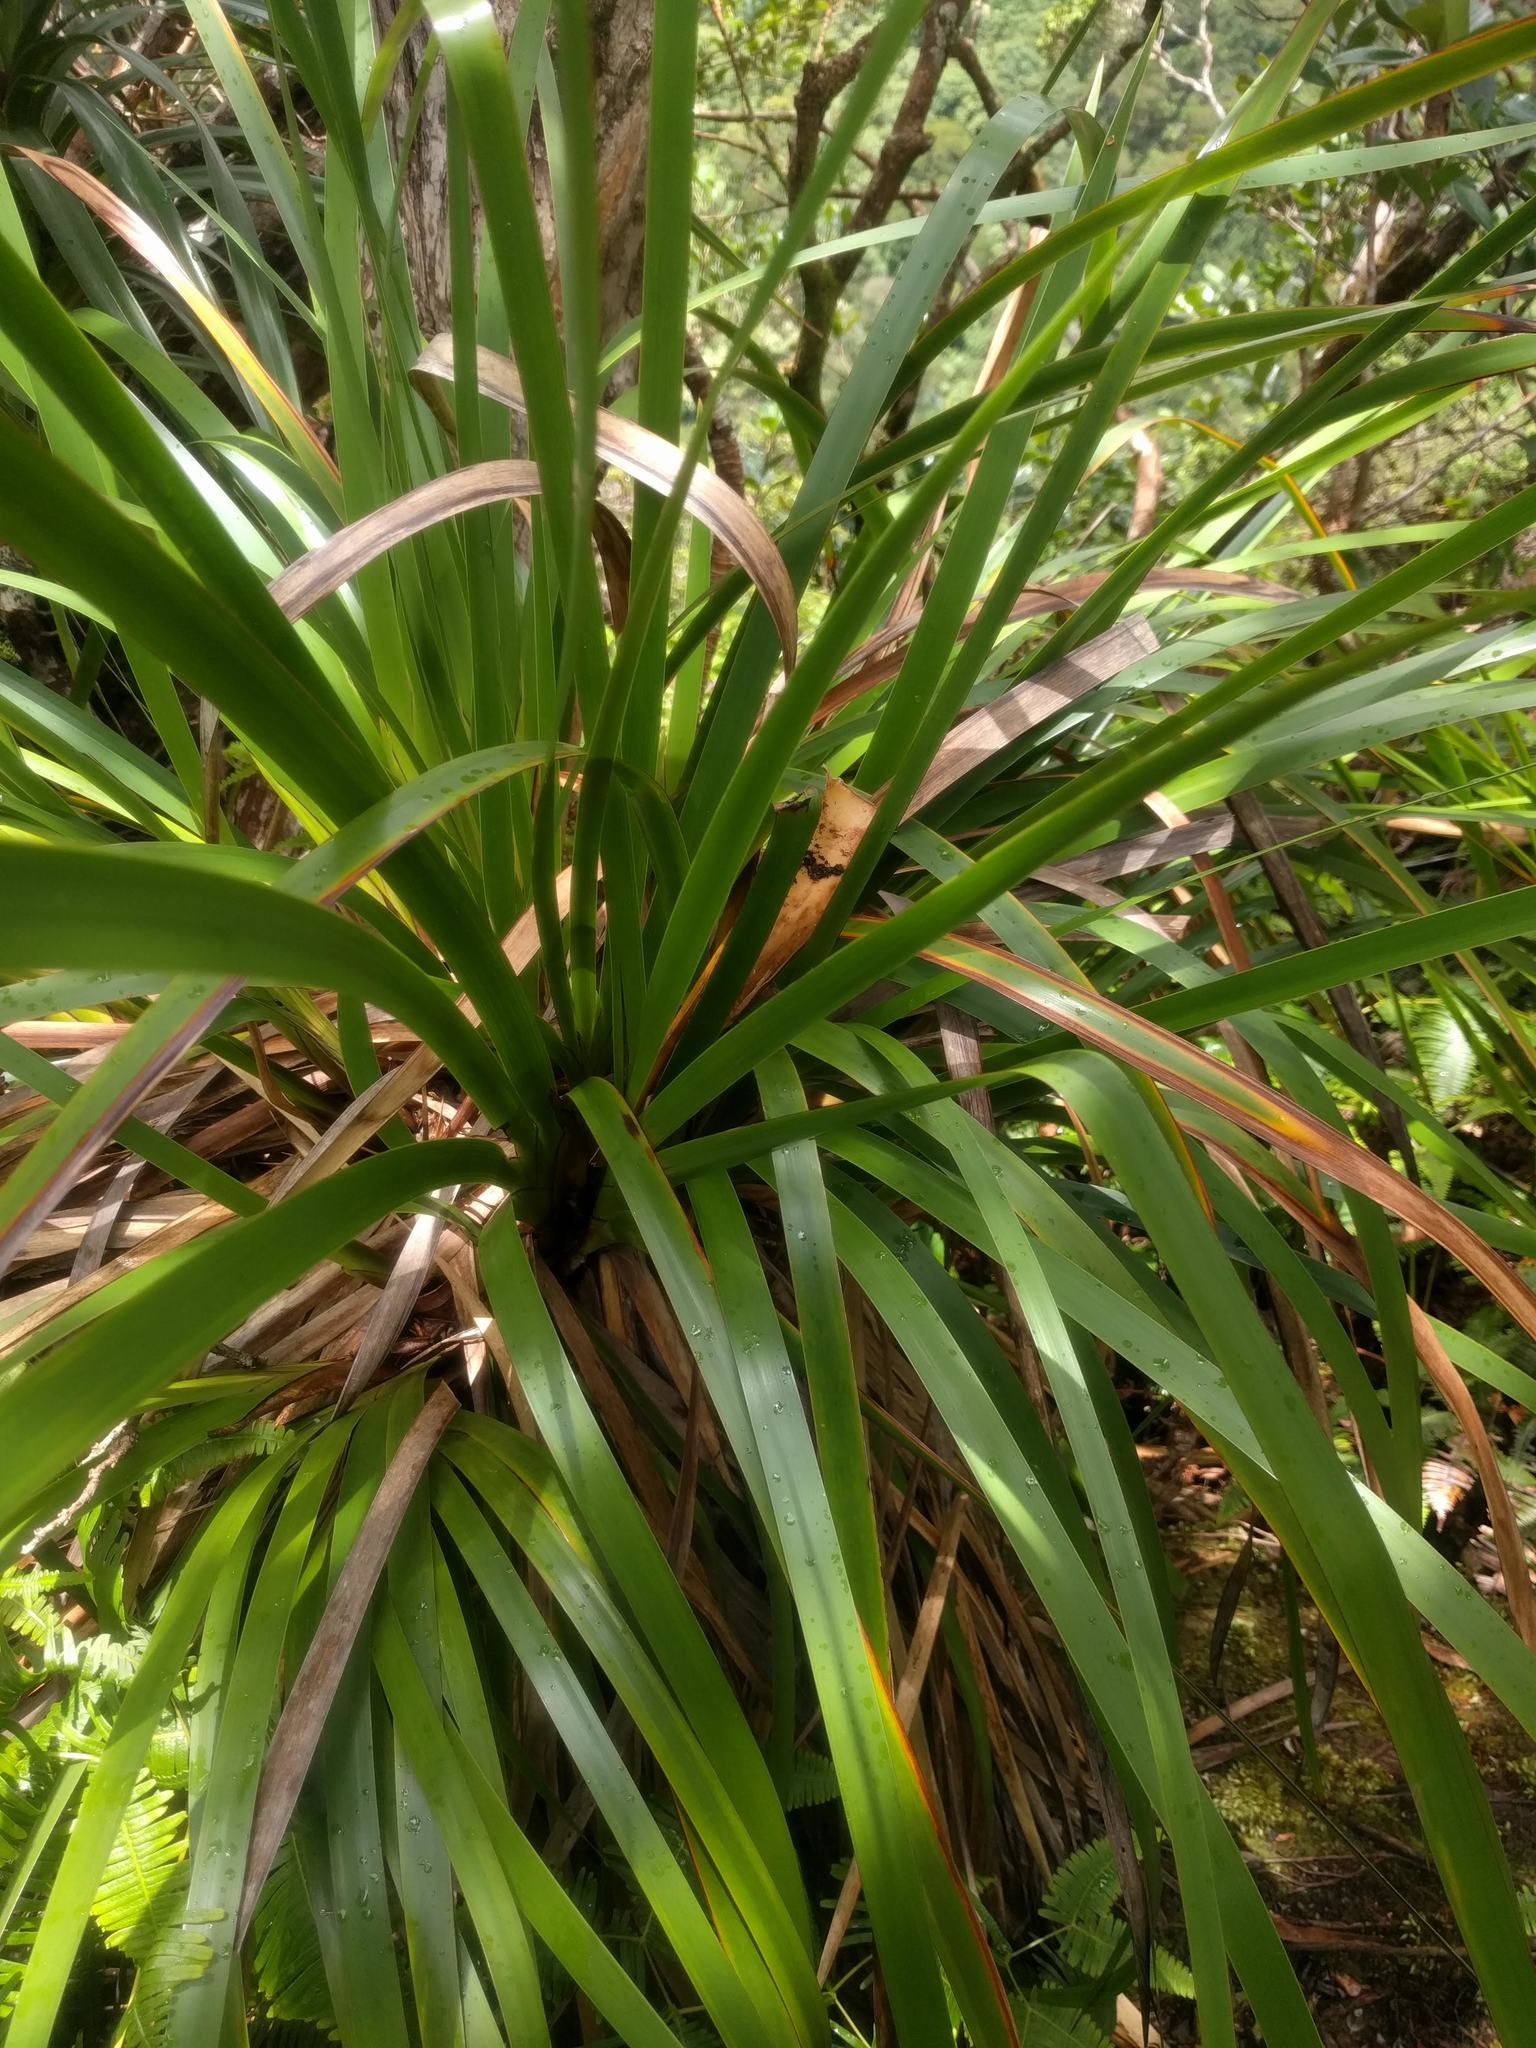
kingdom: Plantae
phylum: Tracheophyta
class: Liliopsida
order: Poales
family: Cyperaceae
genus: Machaerina
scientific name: Machaerina angustifolia
